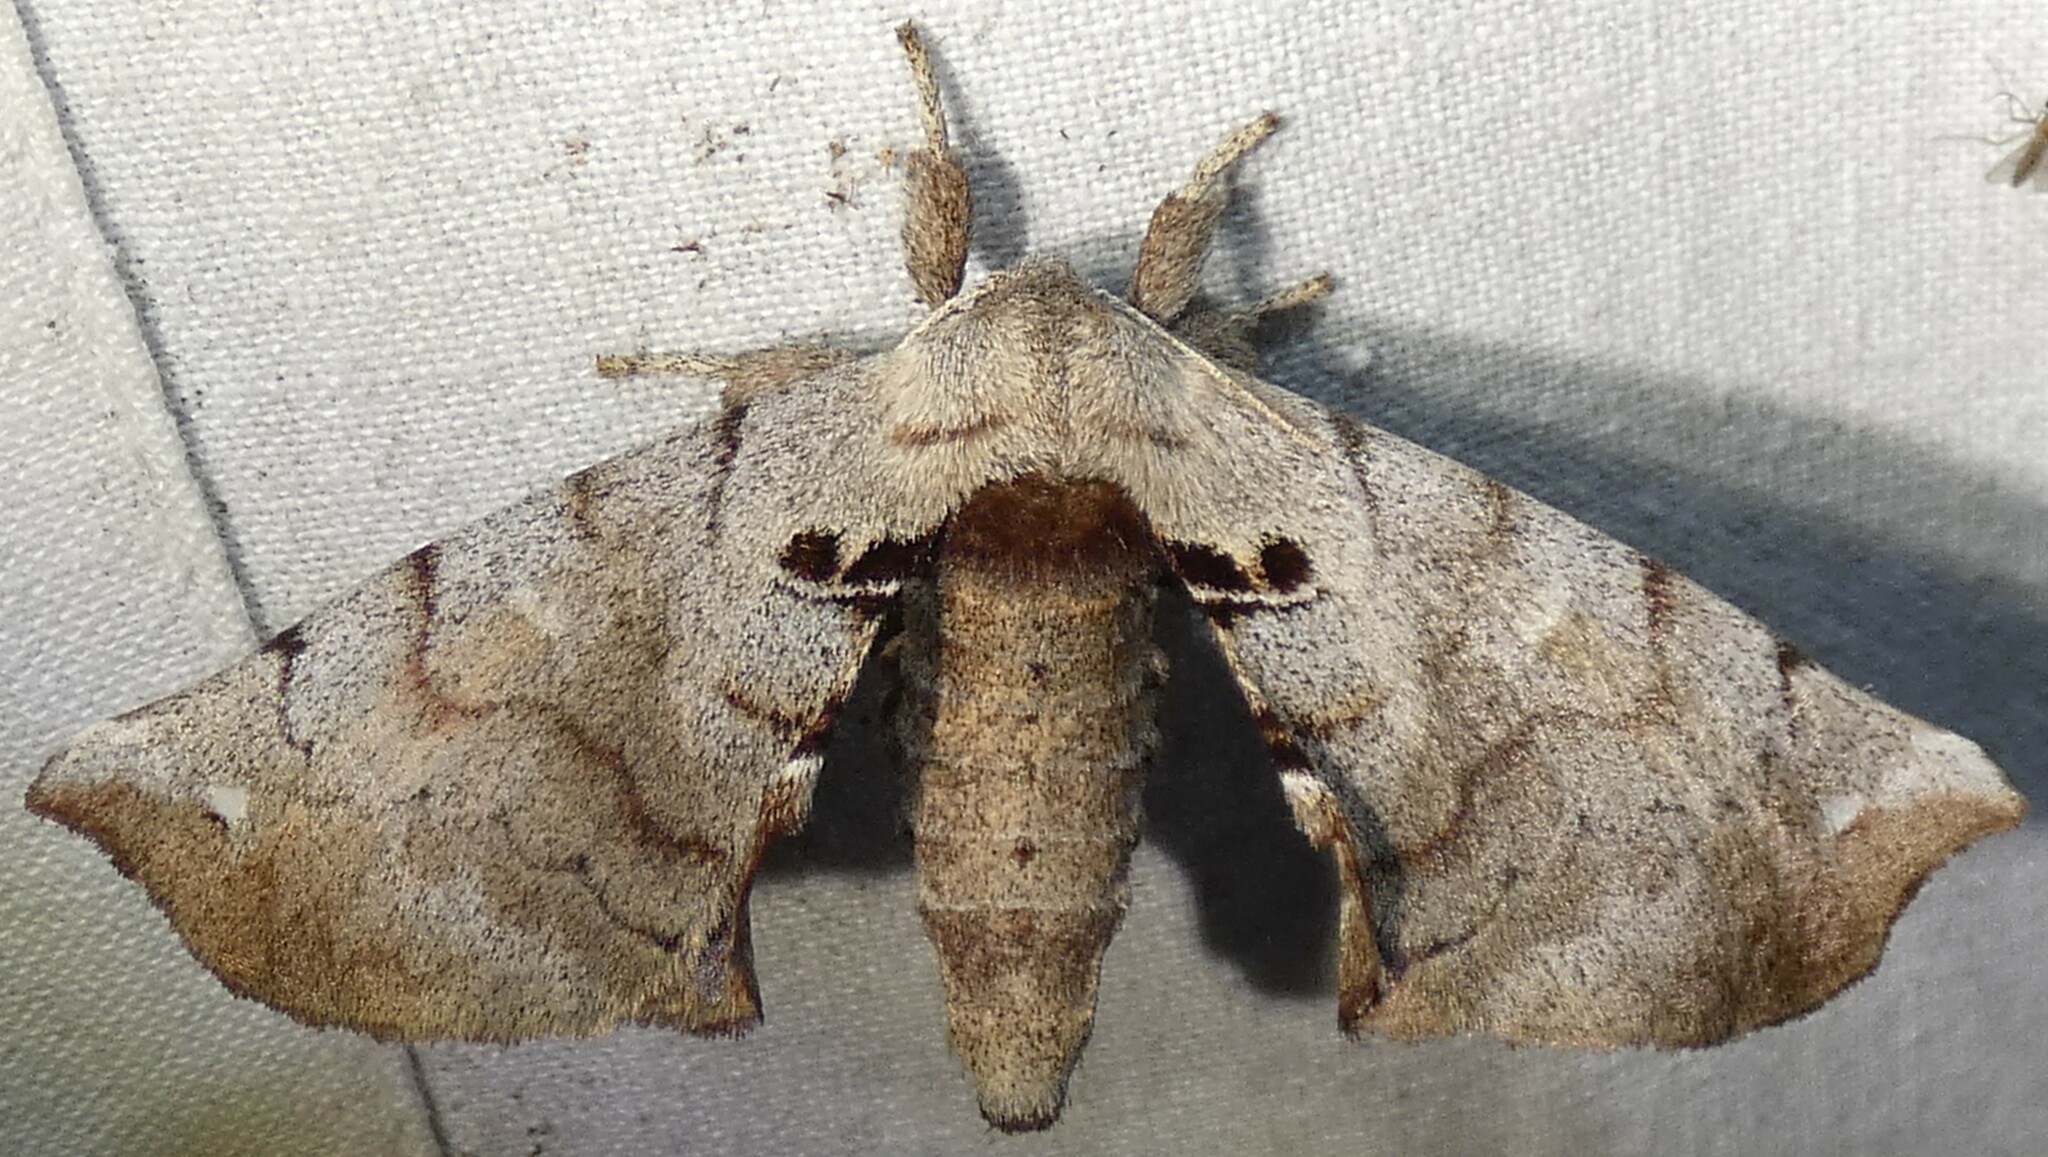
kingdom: Animalia
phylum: Arthropoda
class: Insecta
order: Lepidoptera
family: Apatelodidae
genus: Hygrochroa
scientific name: Hygrochroa Apatelodes torrefacta
